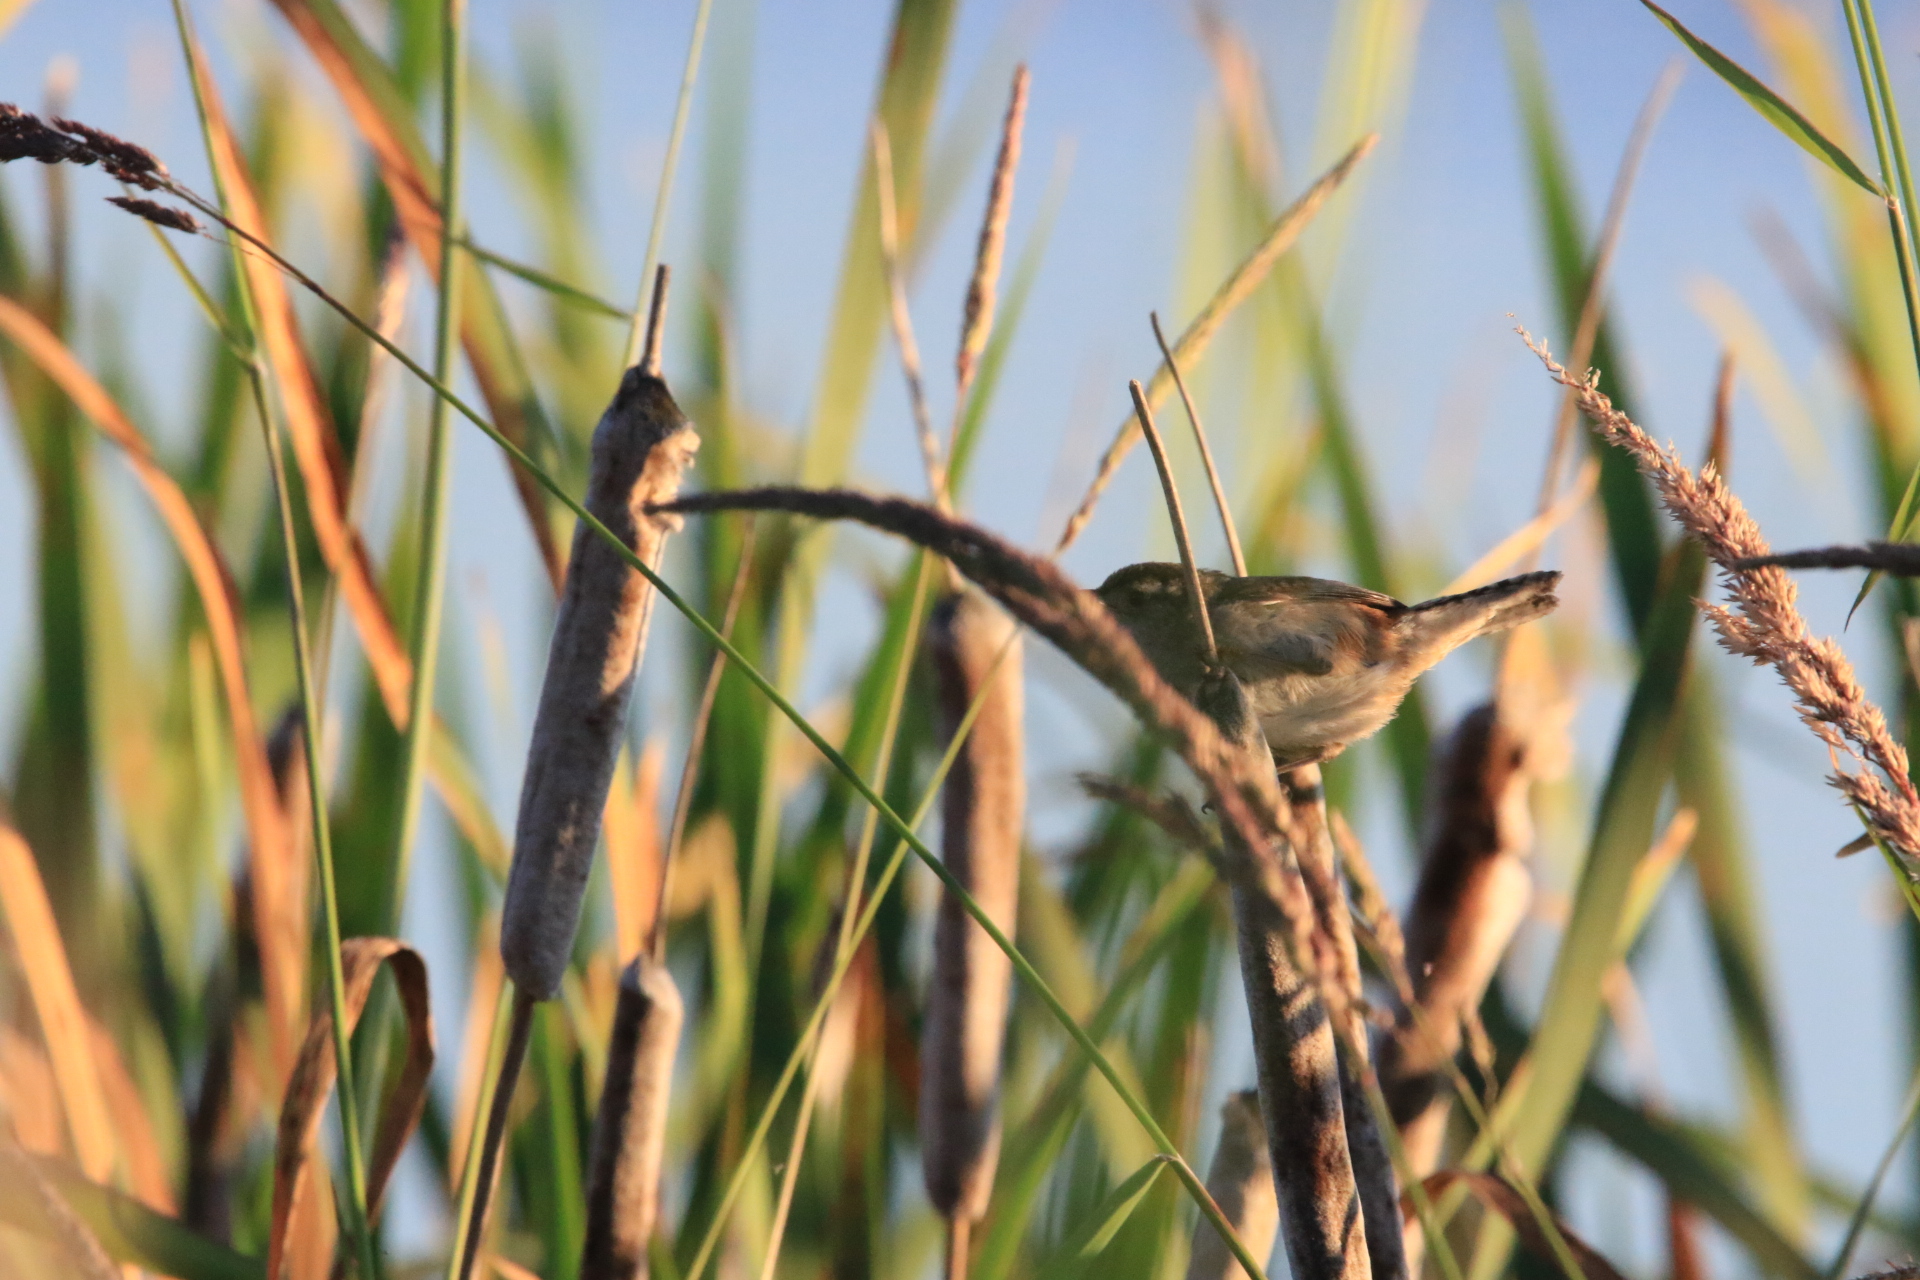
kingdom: Animalia
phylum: Chordata
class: Aves
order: Passeriformes
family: Troglodytidae
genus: Cistothorus
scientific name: Cistothorus palustris
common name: Marsh wren
